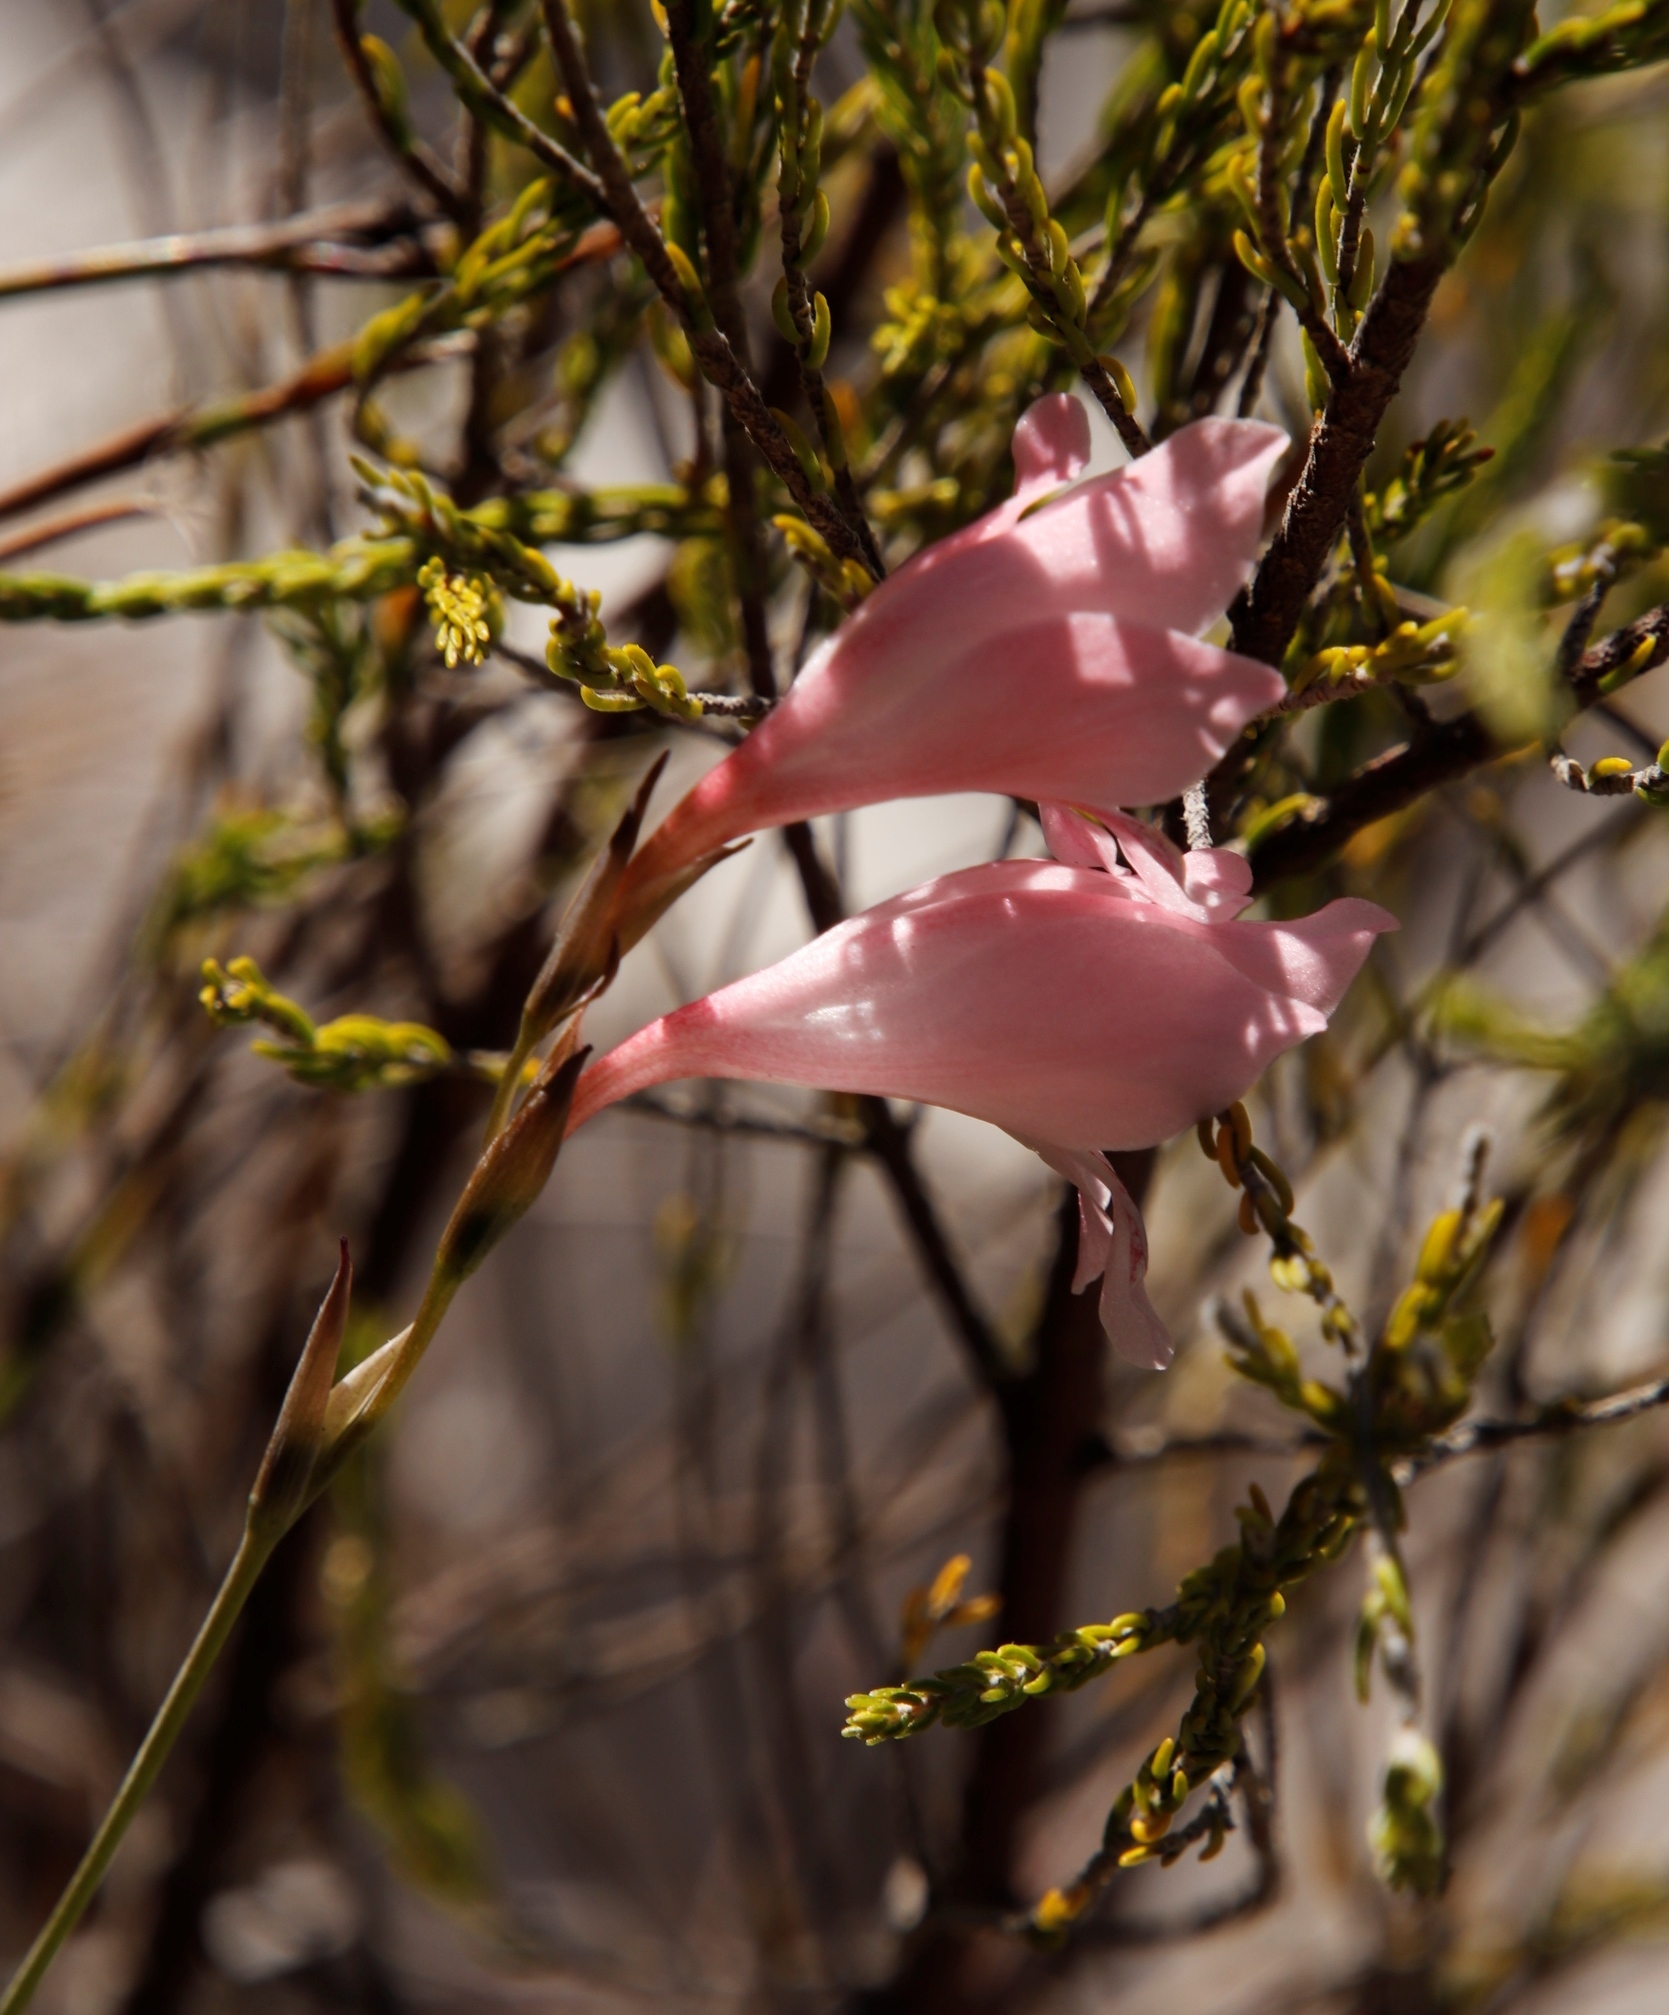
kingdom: Plantae
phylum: Tracheophyta
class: Liliopsida
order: Asparagales
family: Iridaceae
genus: Gladiolus
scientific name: Gladiolus brevifolius
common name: March pypie
